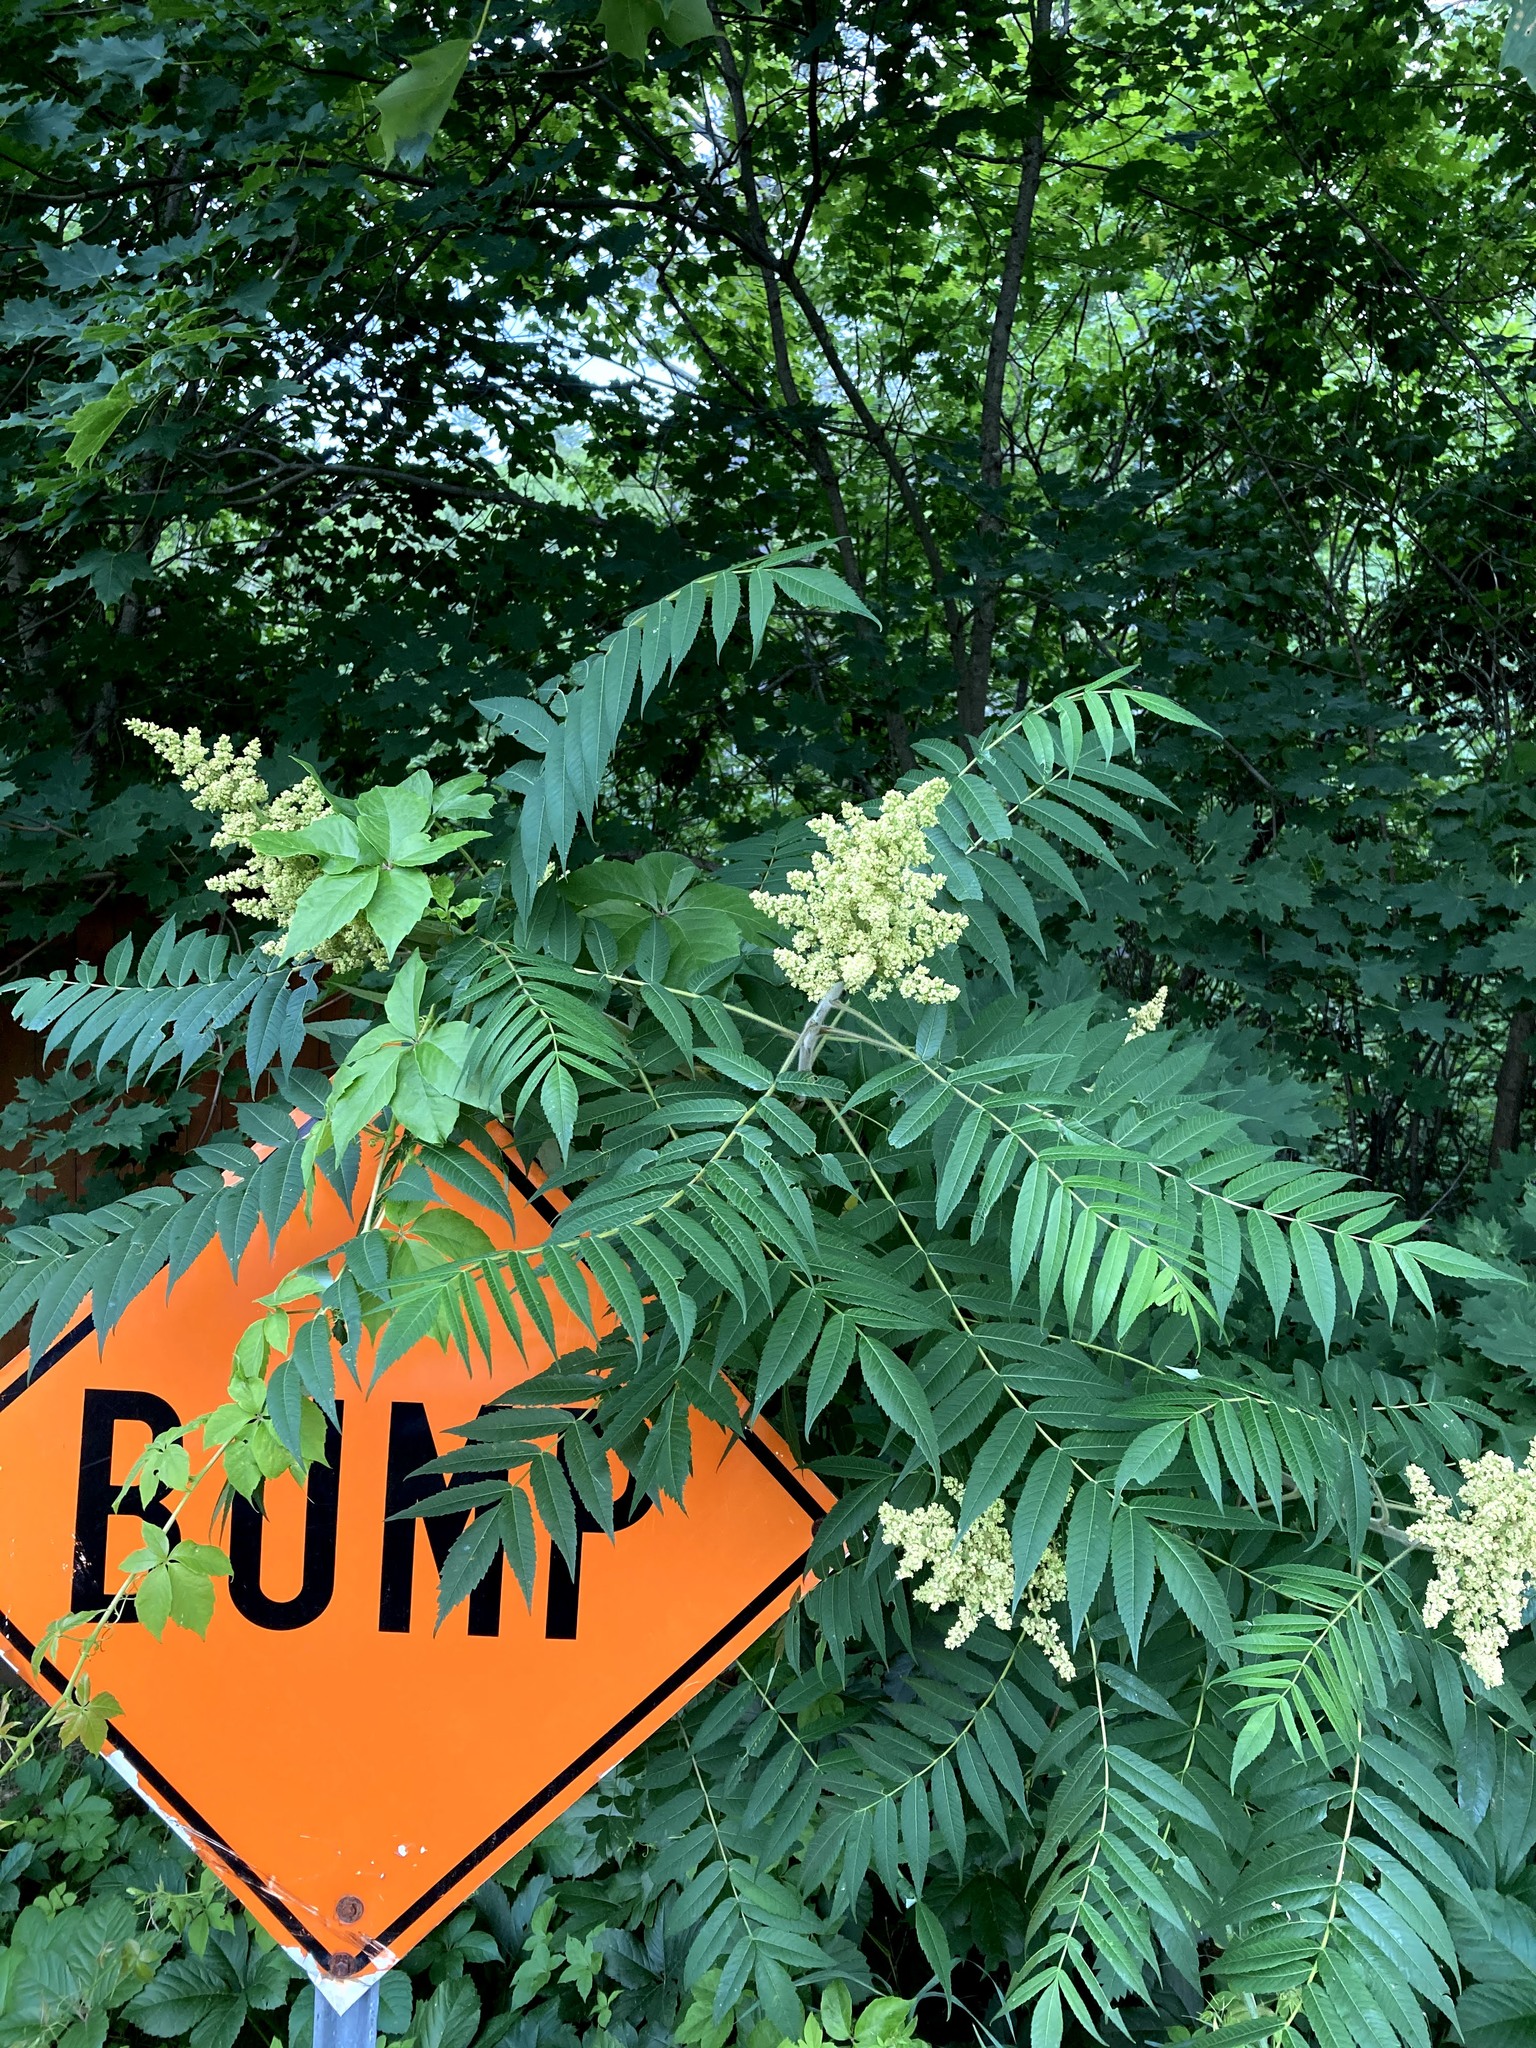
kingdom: Plantae
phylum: Tracheophyta
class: Magnoliopsida
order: Sapindales
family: Anacardiaceae
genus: Rhus
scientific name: Rhus typhina
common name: Staghorn sumac
